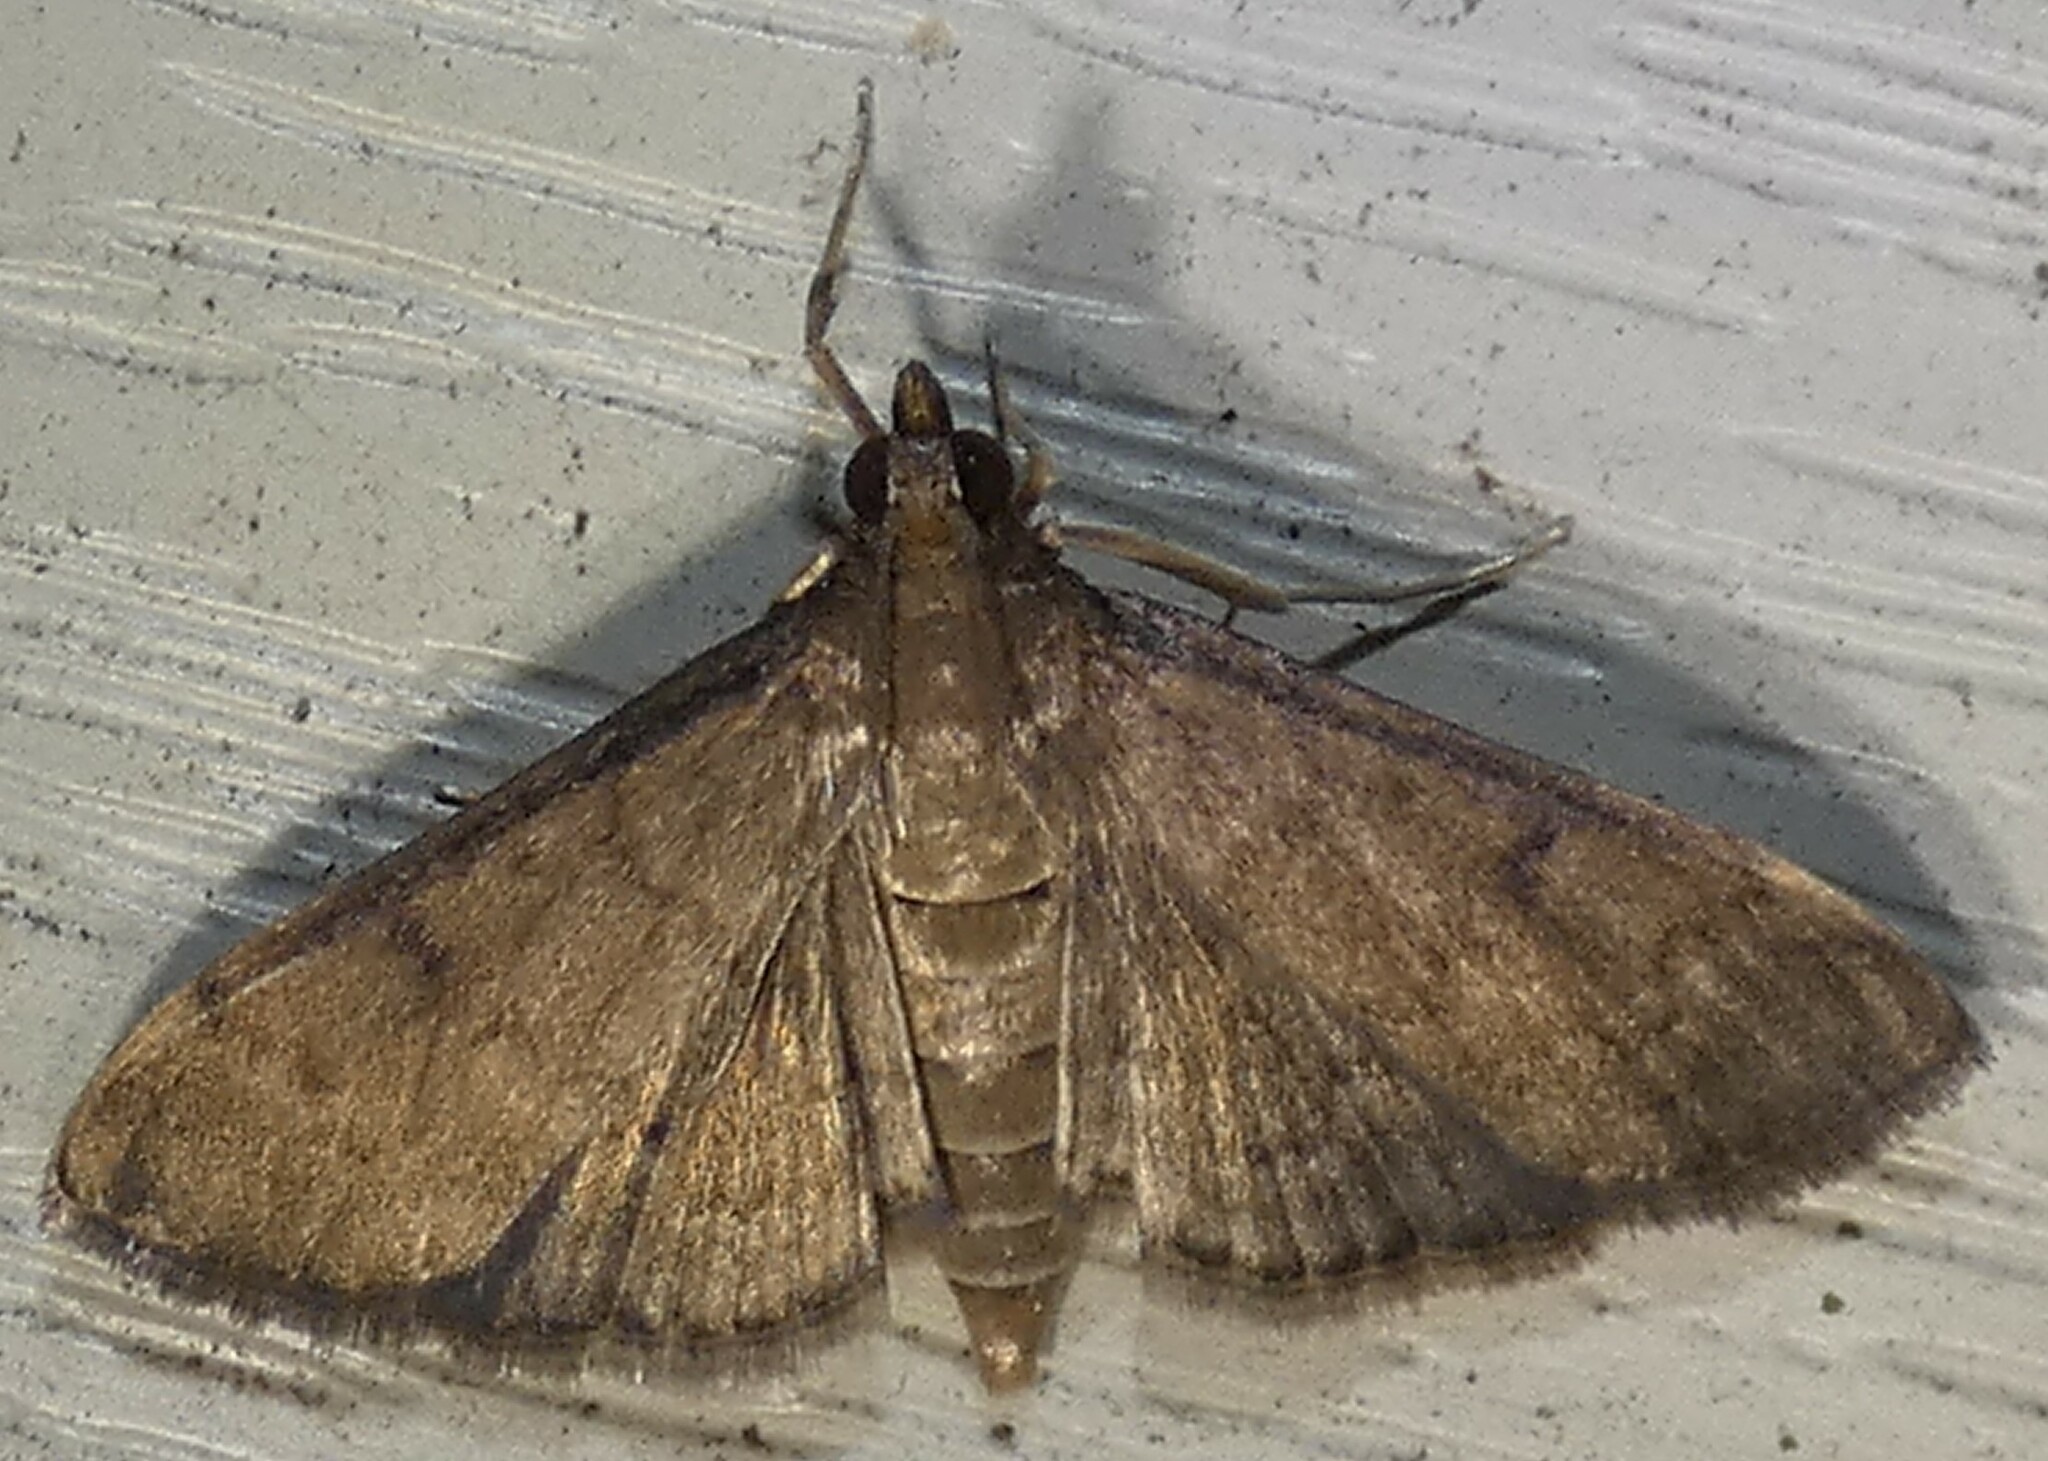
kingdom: Animalia
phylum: Arthropoda
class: Insecta
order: Lepidoptera
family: Crambidae
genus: Herpetogramma
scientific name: Herpetogramma phaeopteralis
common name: Dusky herpetogramma moth
